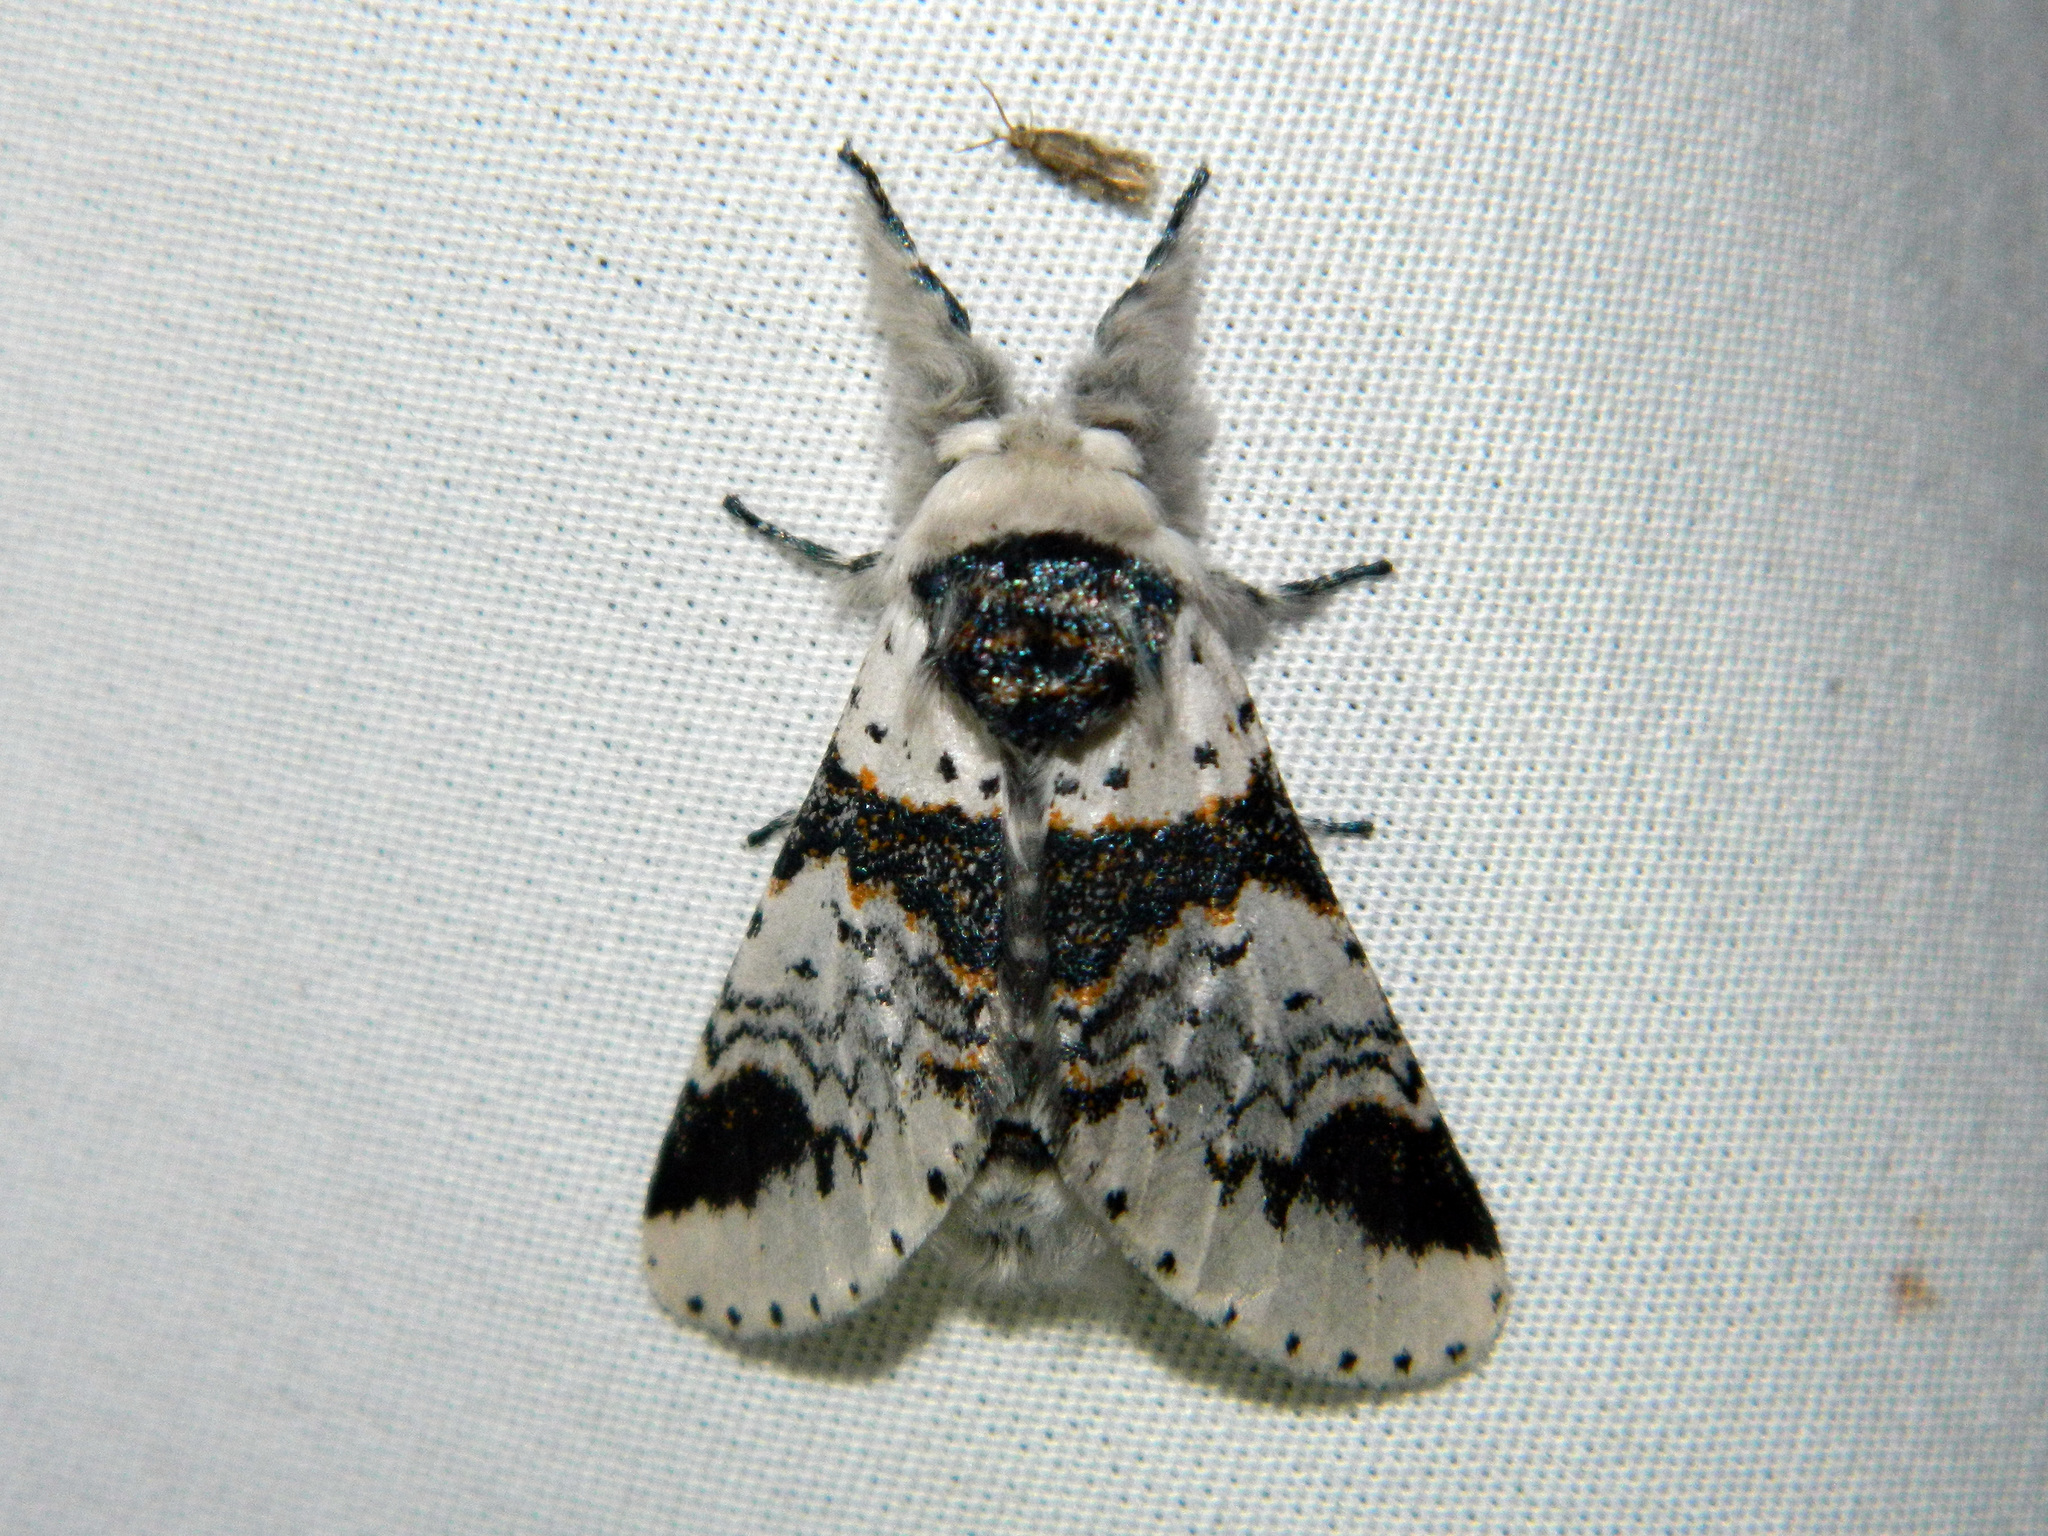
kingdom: Animalia
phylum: Arthropoda
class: Insecta
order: Lepidoptera
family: Notodontidae
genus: Furcula
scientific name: Furcula scolopendrina
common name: Zigzag furcula moth
